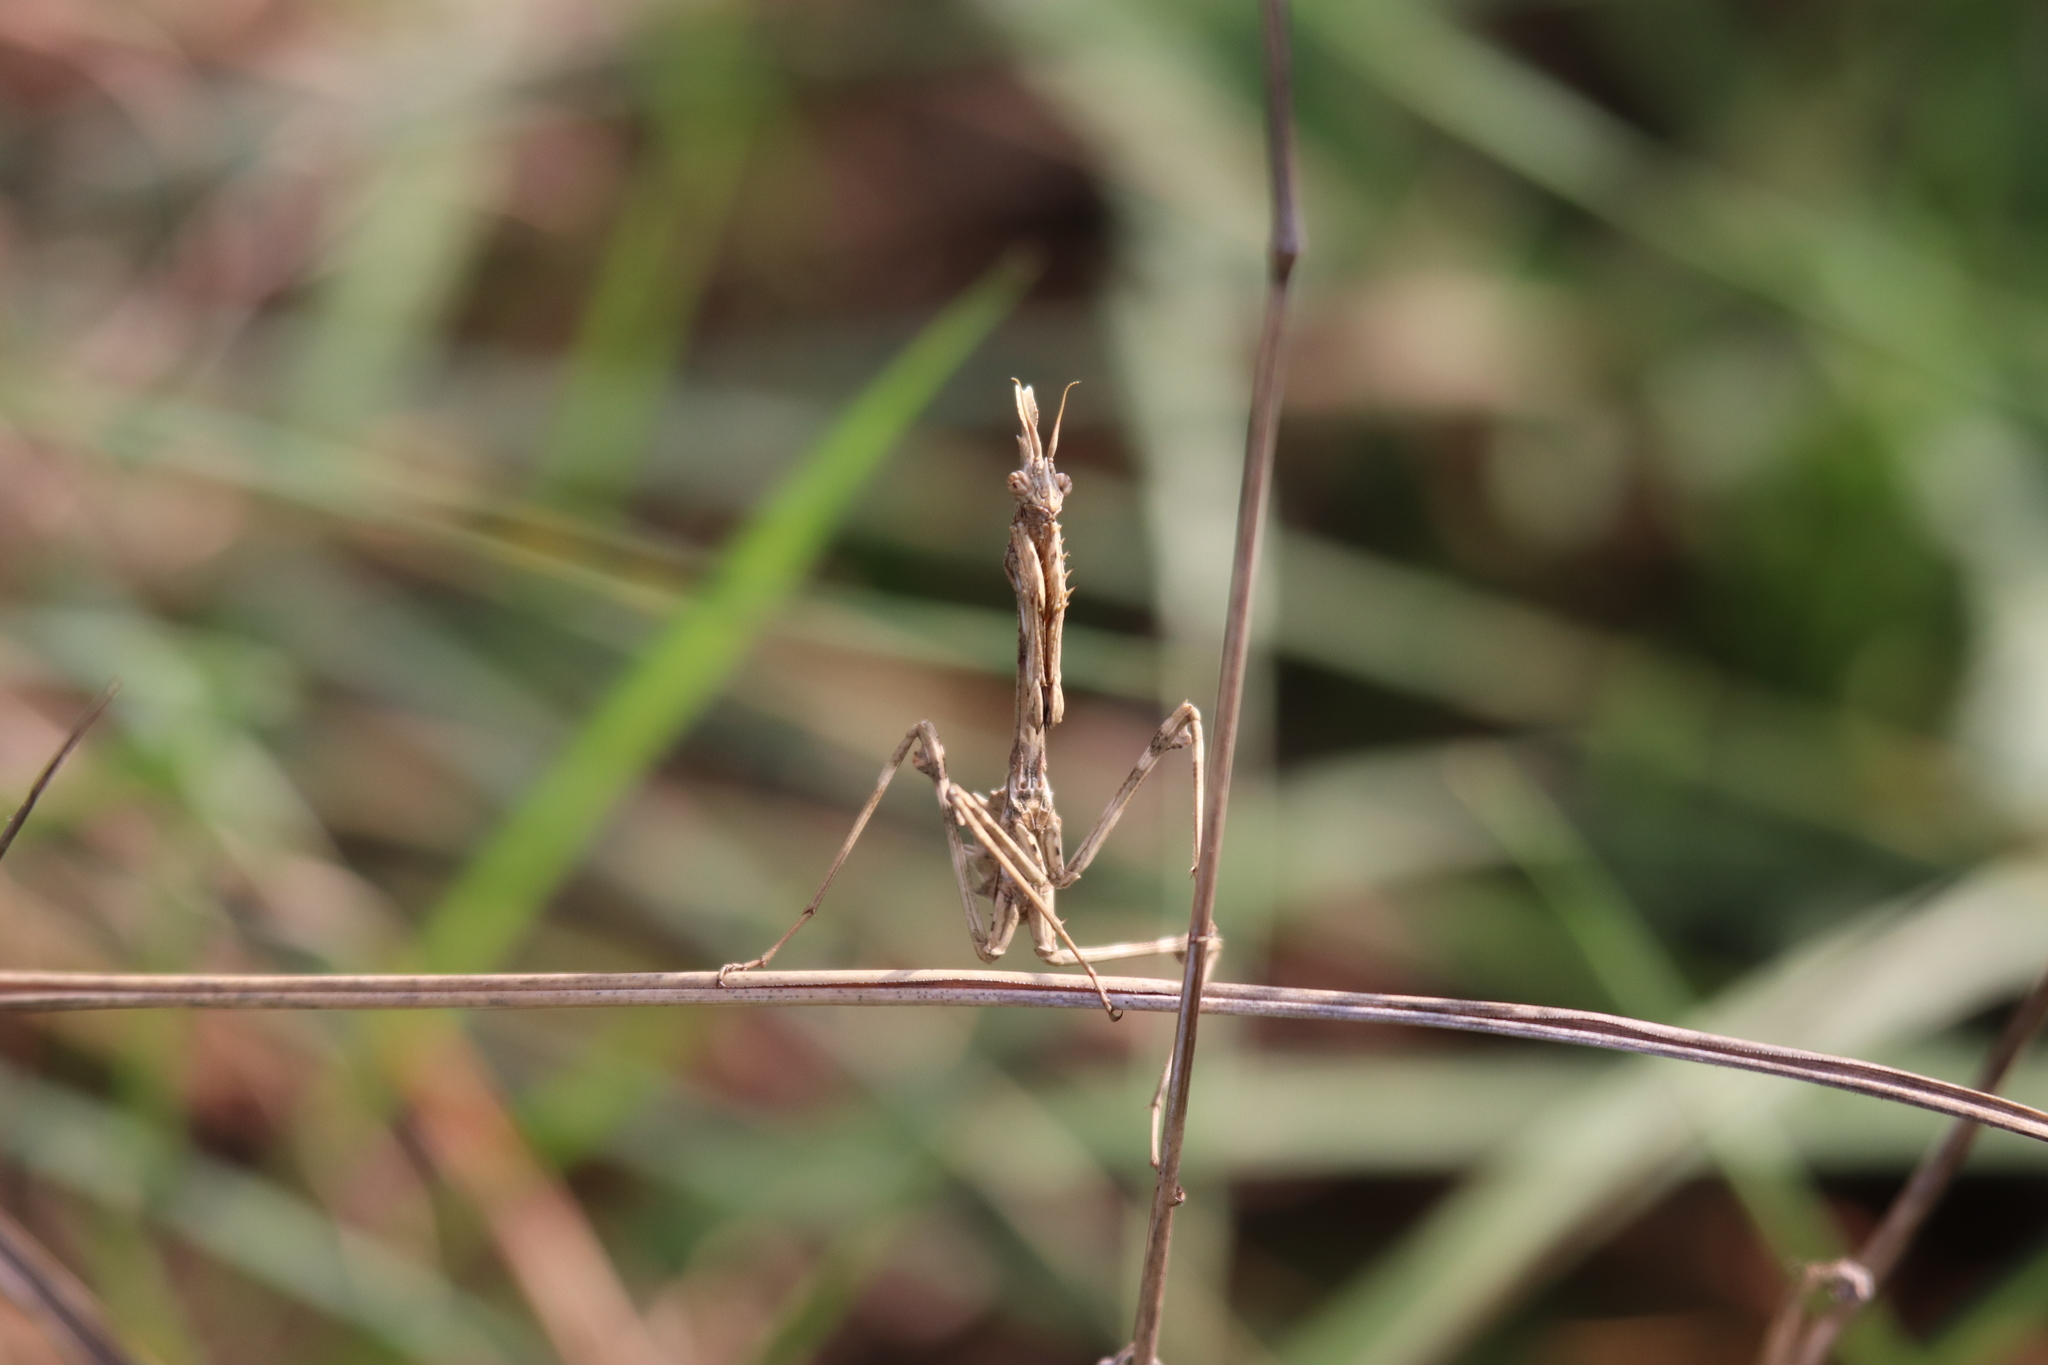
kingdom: Animalia
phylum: Arthropoda
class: Insecta
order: Mantodea
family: Empusidae
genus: Empusa
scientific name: Empusa pennata
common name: Conehead mantis
